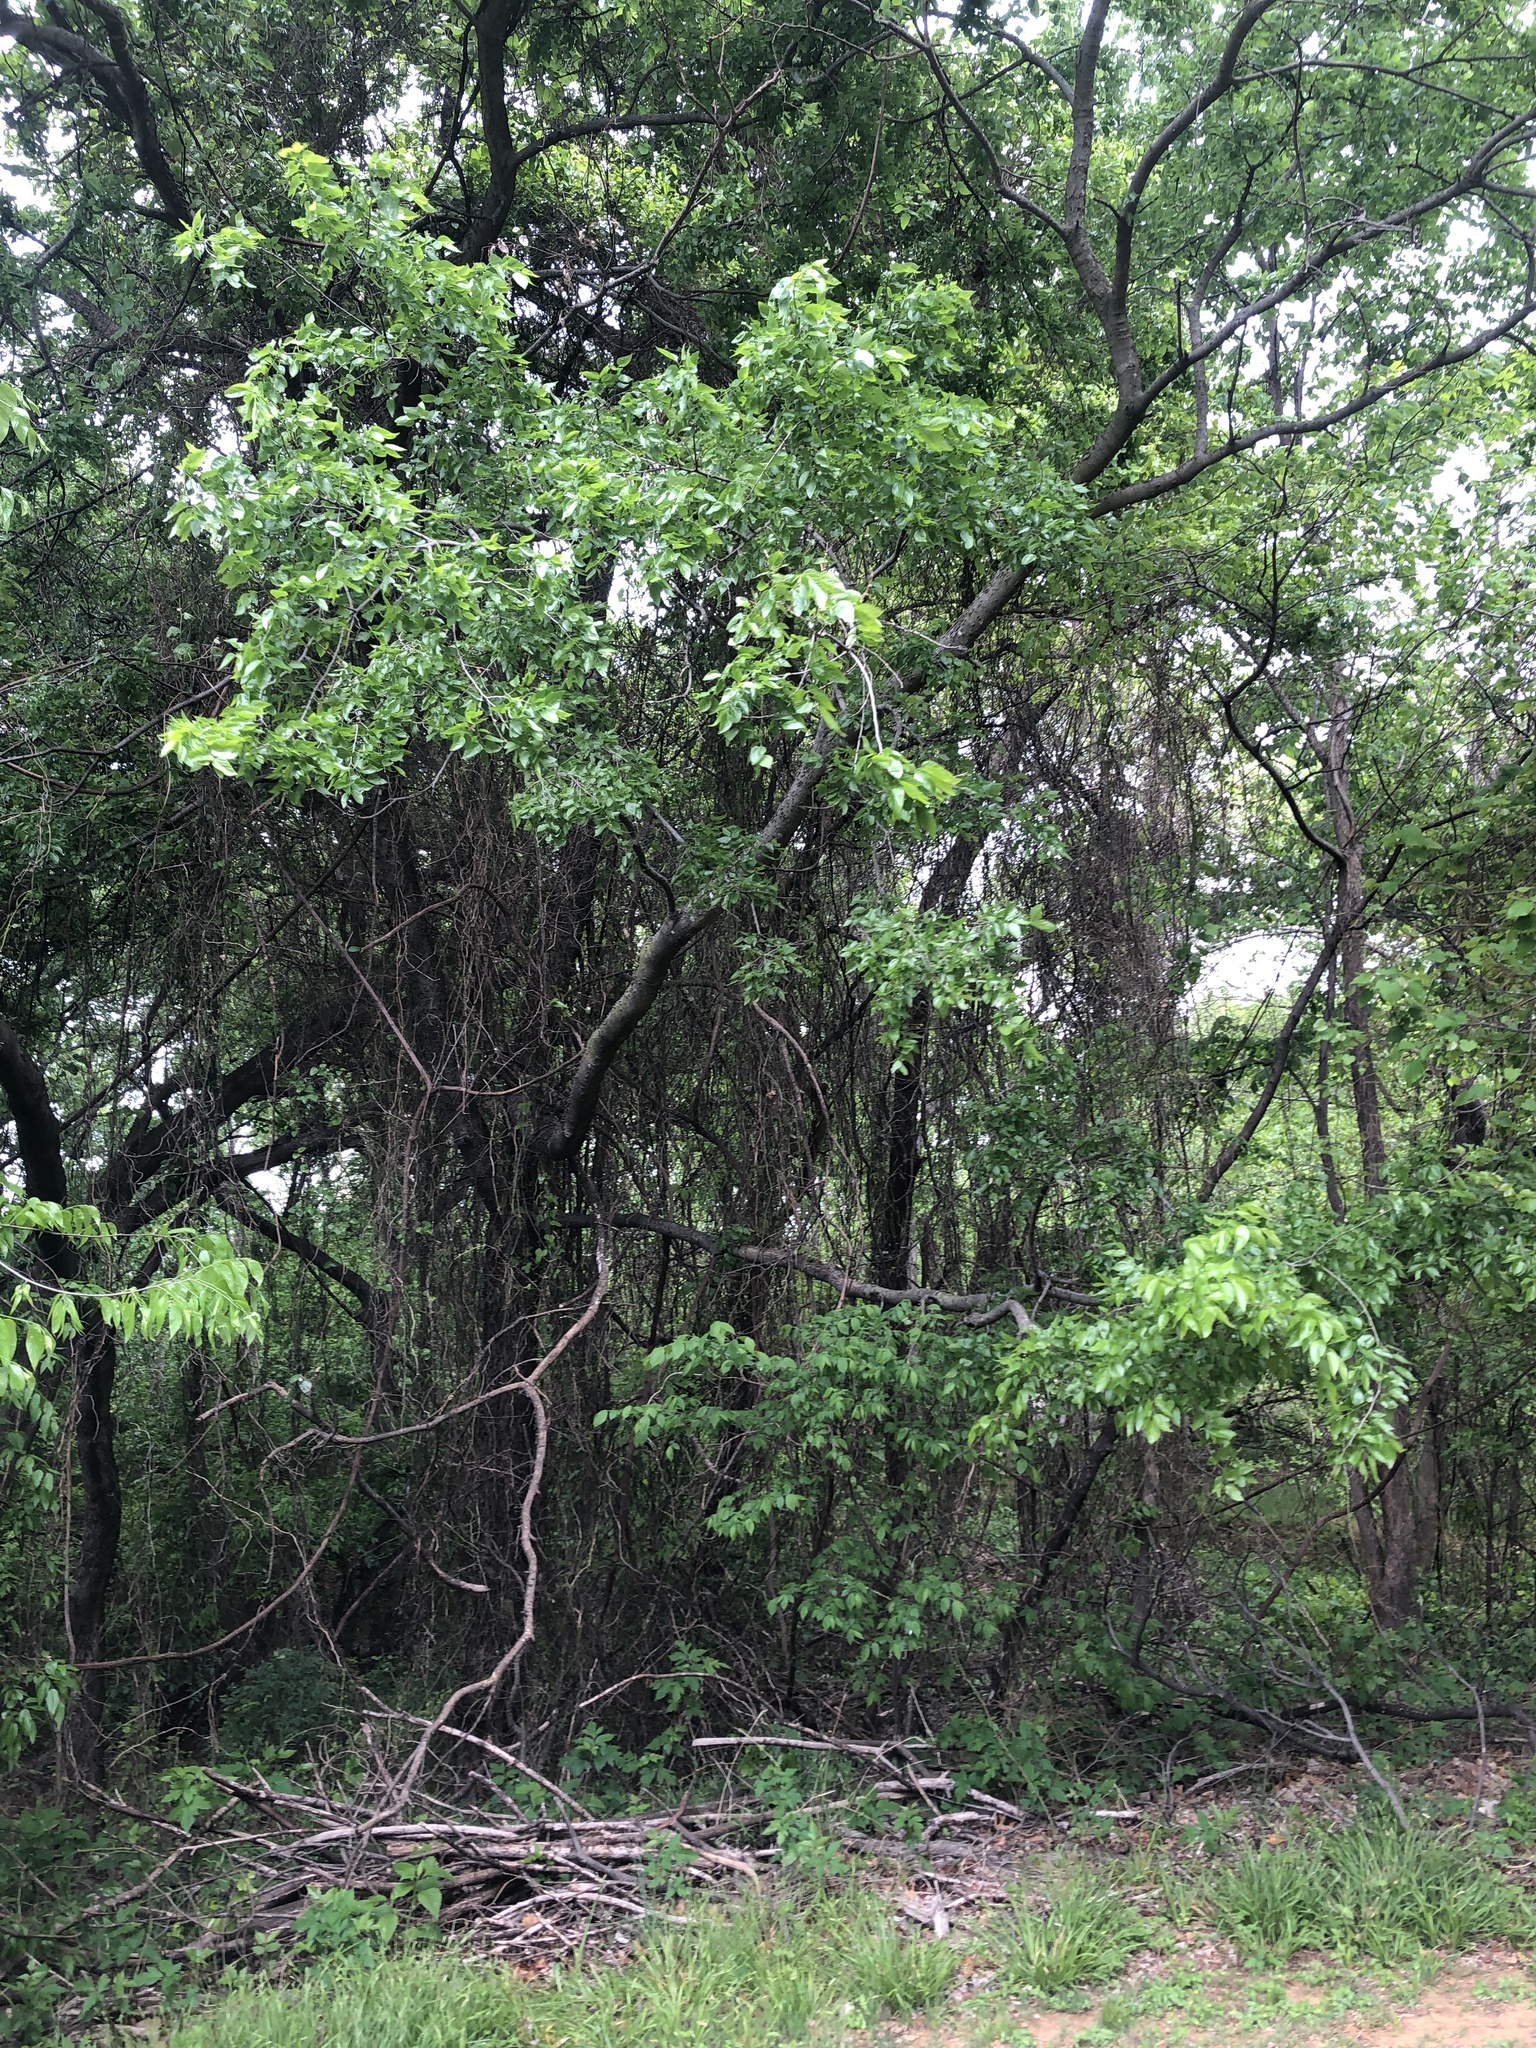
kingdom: Plantae
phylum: Tracheophyta
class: Magnoliopsida
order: Rosales
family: Cannabaceae
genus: Celtis
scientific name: Celtis laevigata
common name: Sugarberry
